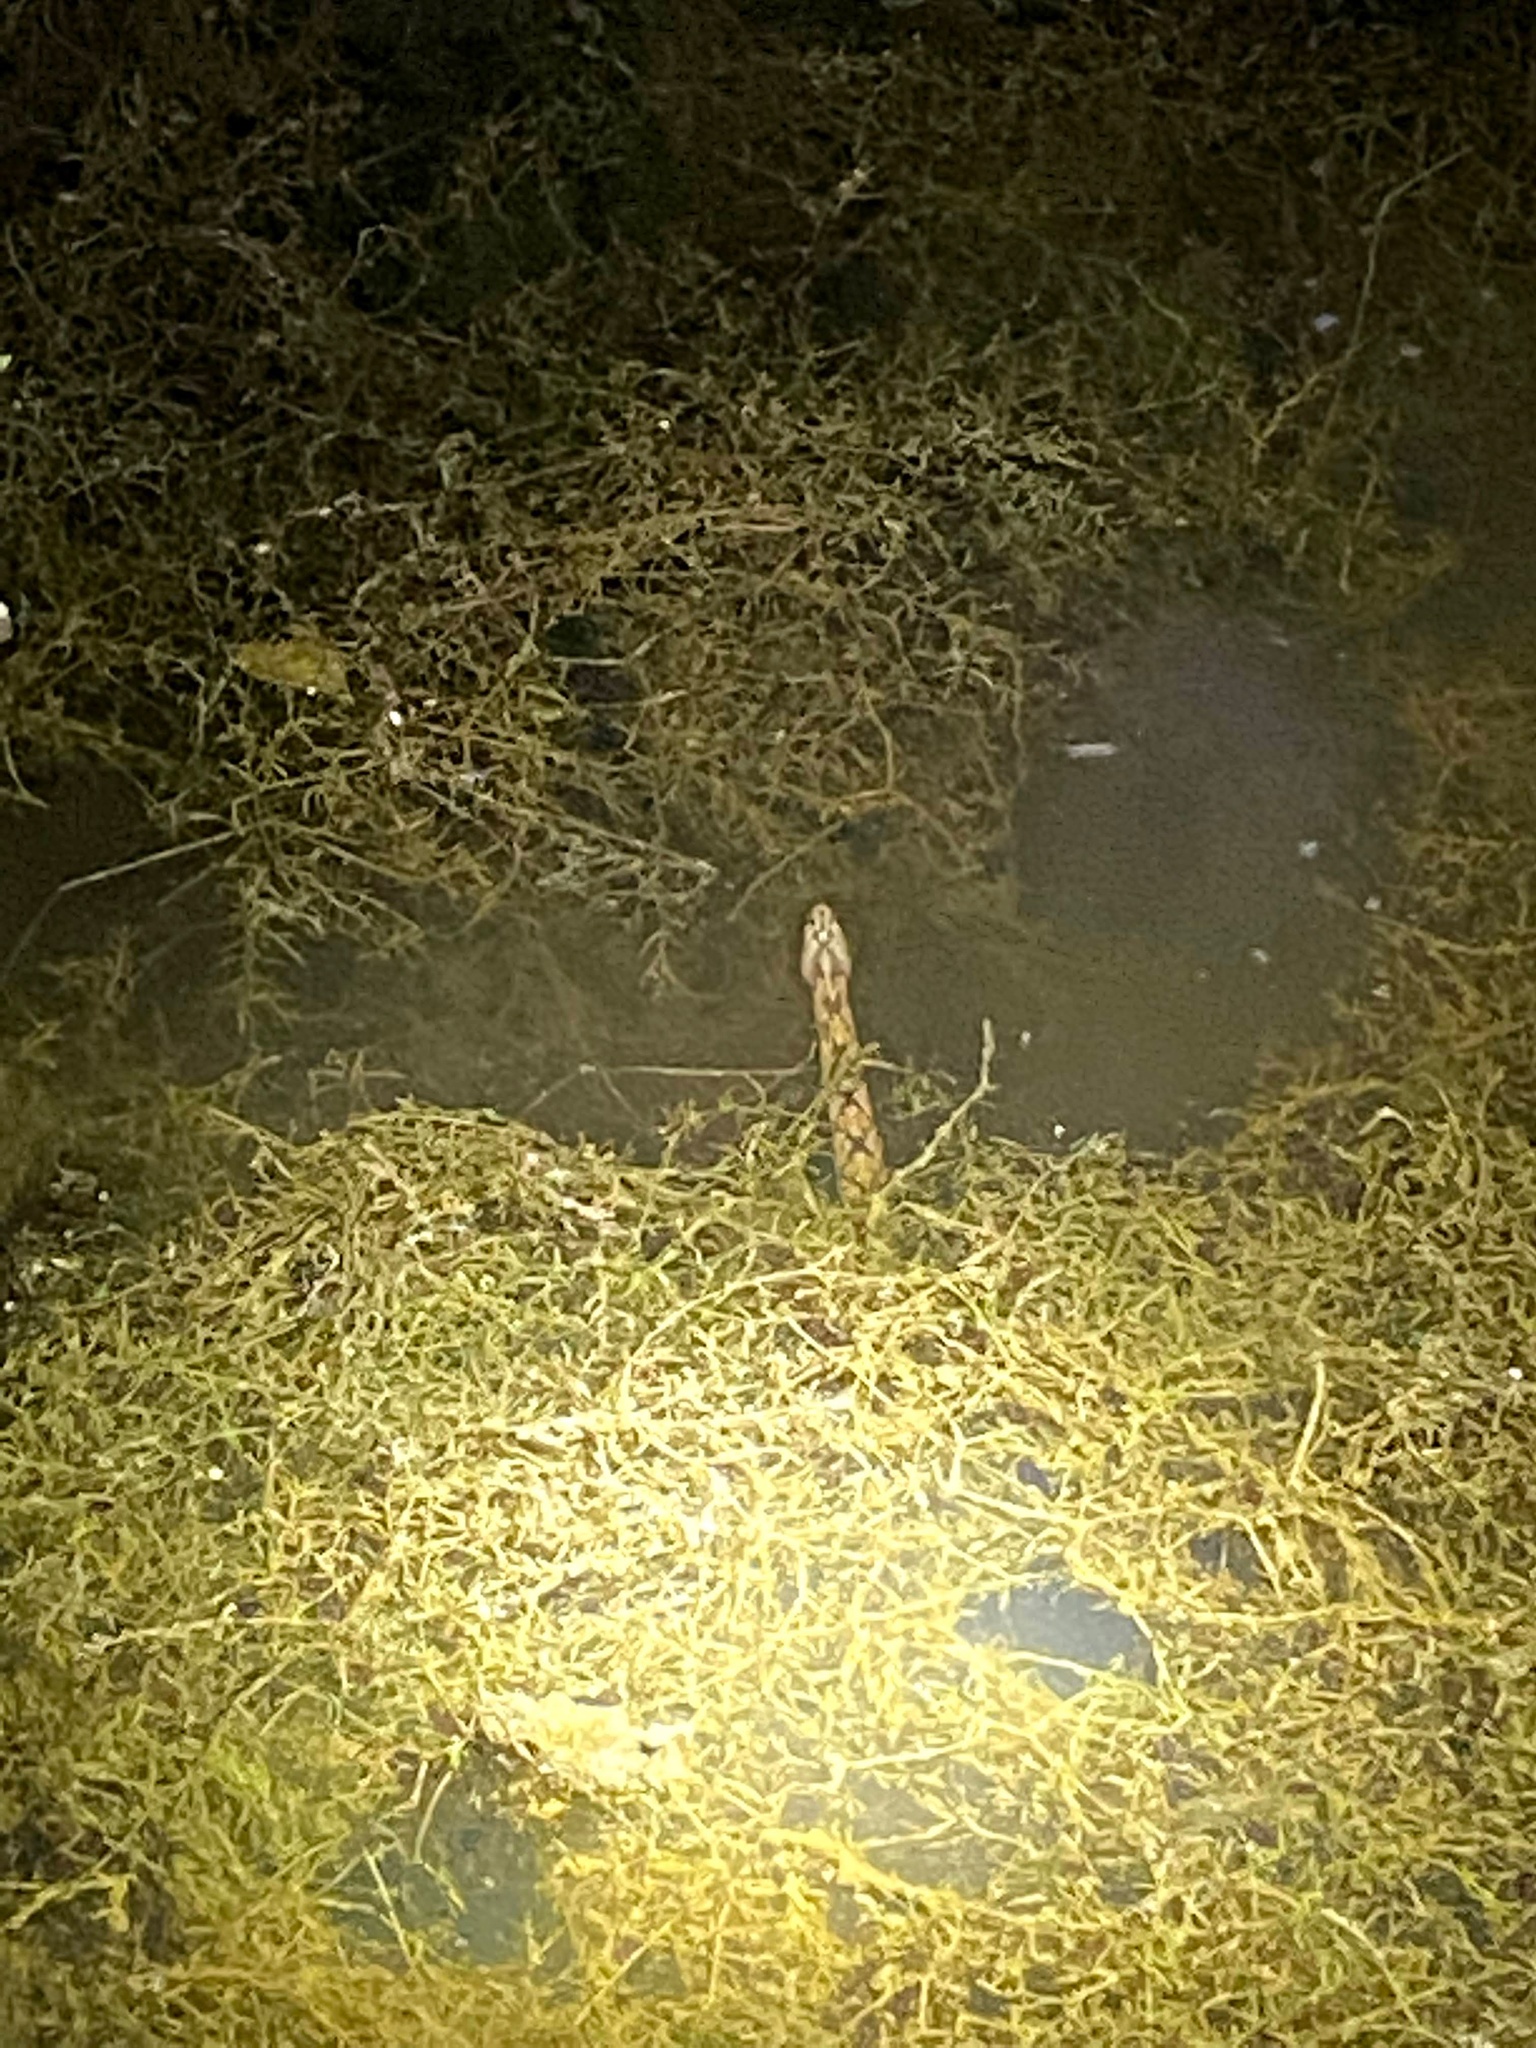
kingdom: Animalia
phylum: Chordata
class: Squamata
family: Colubridae
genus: Nerodia
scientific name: Nerodia rhombifer
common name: Diamondback water snake
